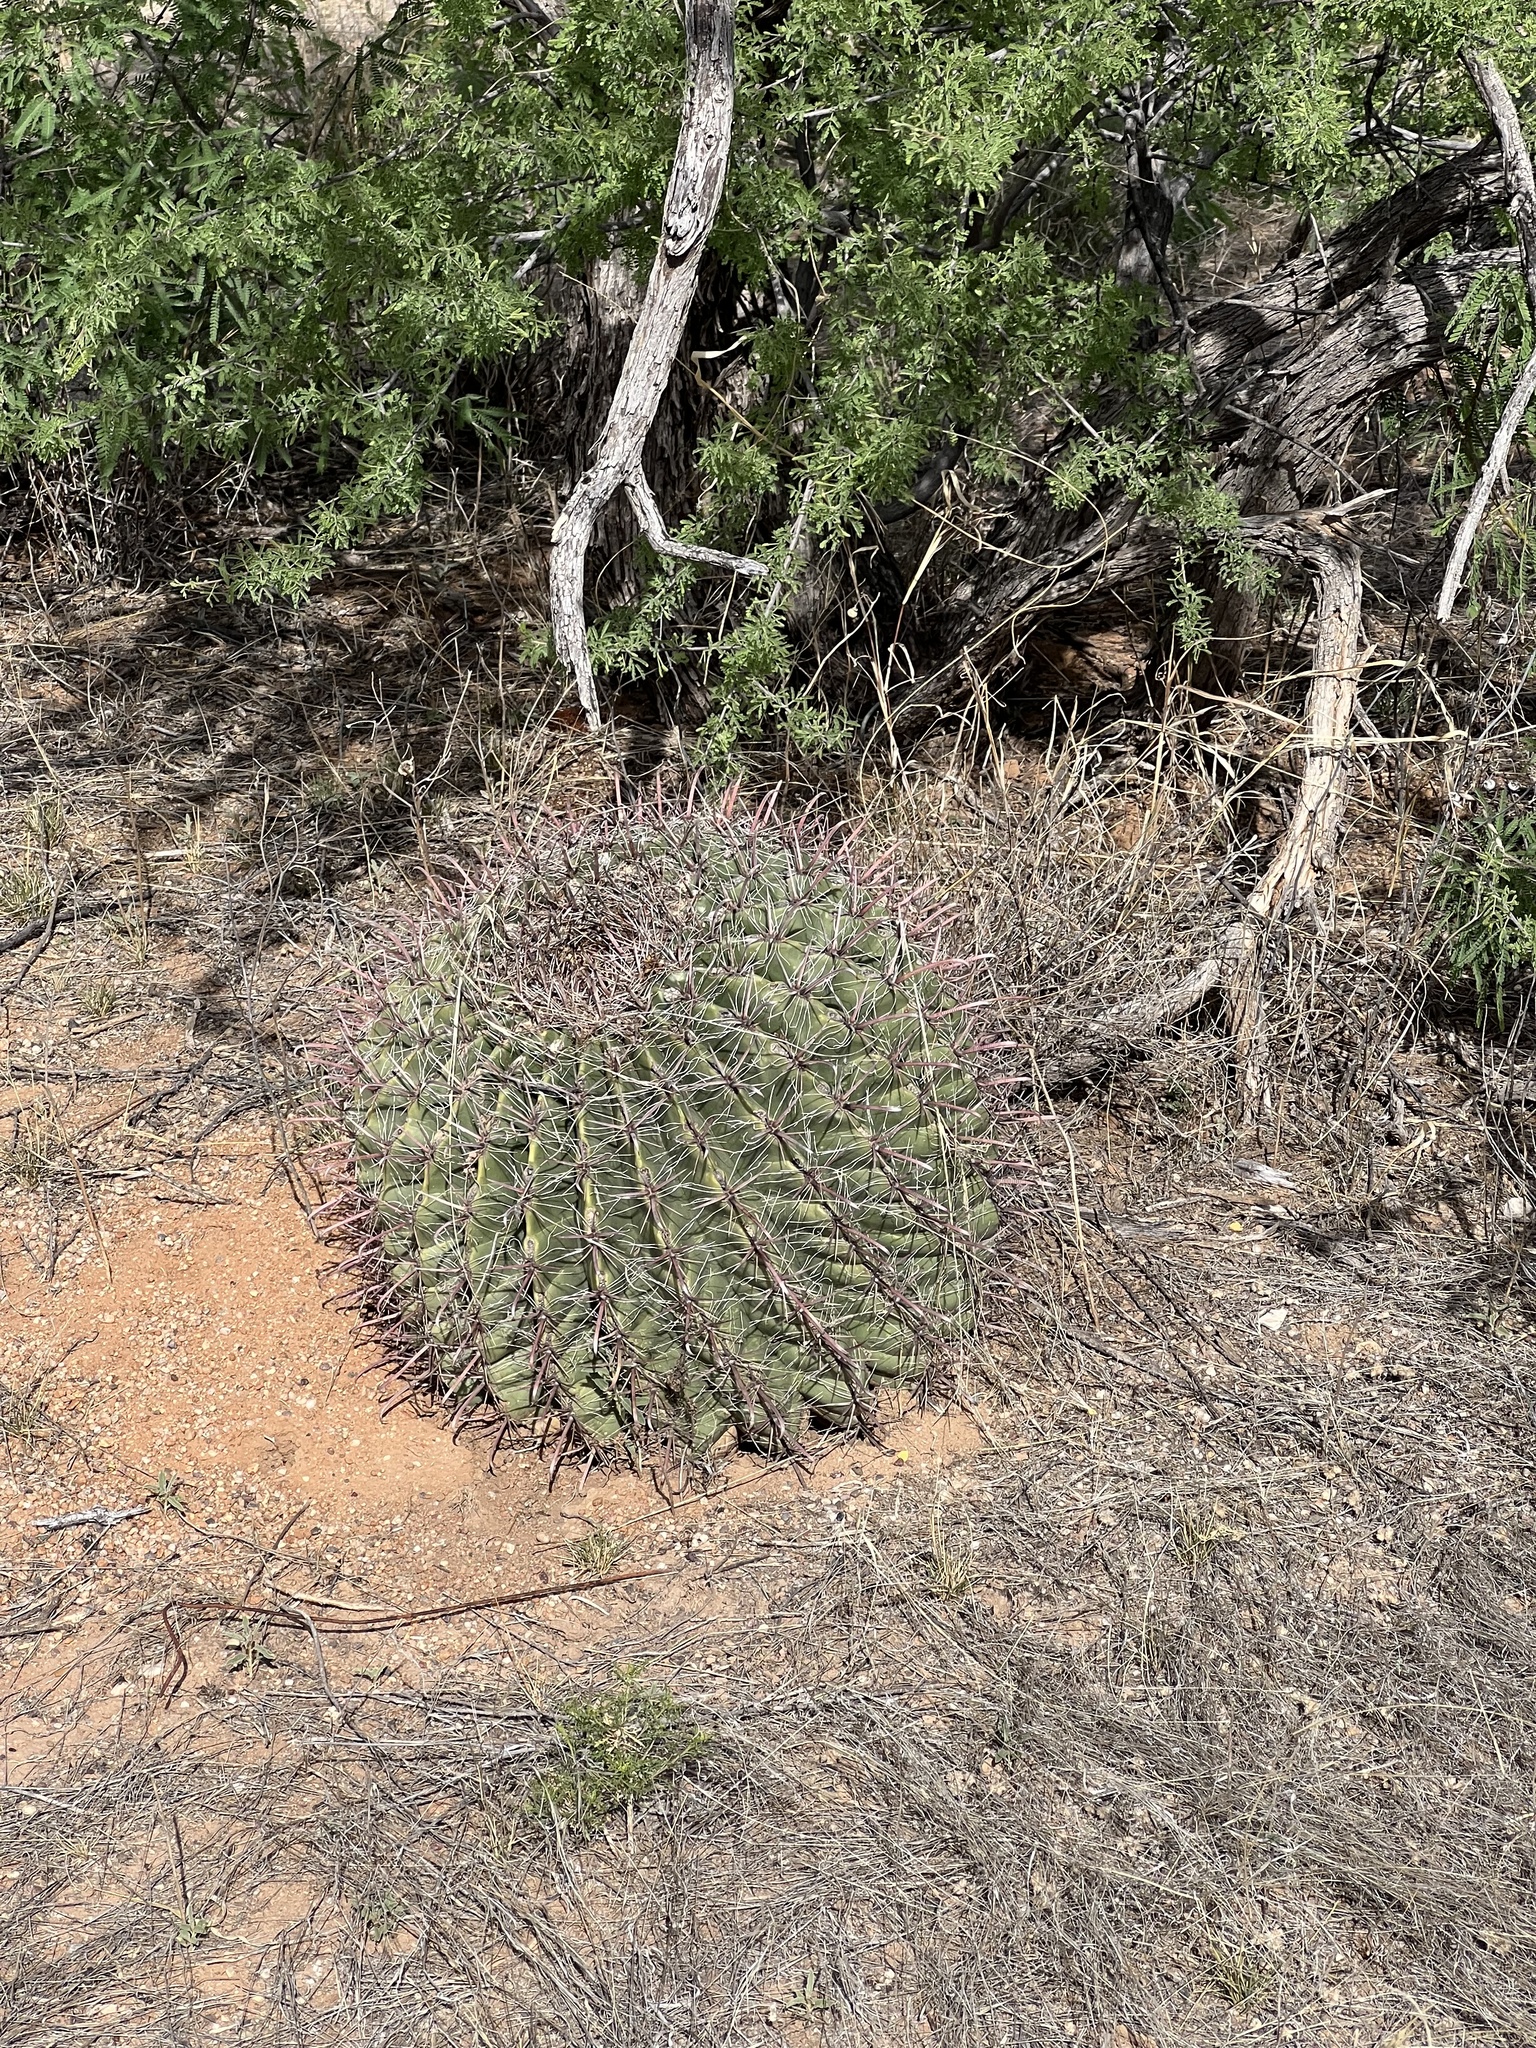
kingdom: Plantae
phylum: Tracheophyta
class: Magnoliopsida
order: Caryophyllales
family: Cactaceae
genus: Ferocactus
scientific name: Ferocactus wislizeni
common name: Candy barrel cactus
